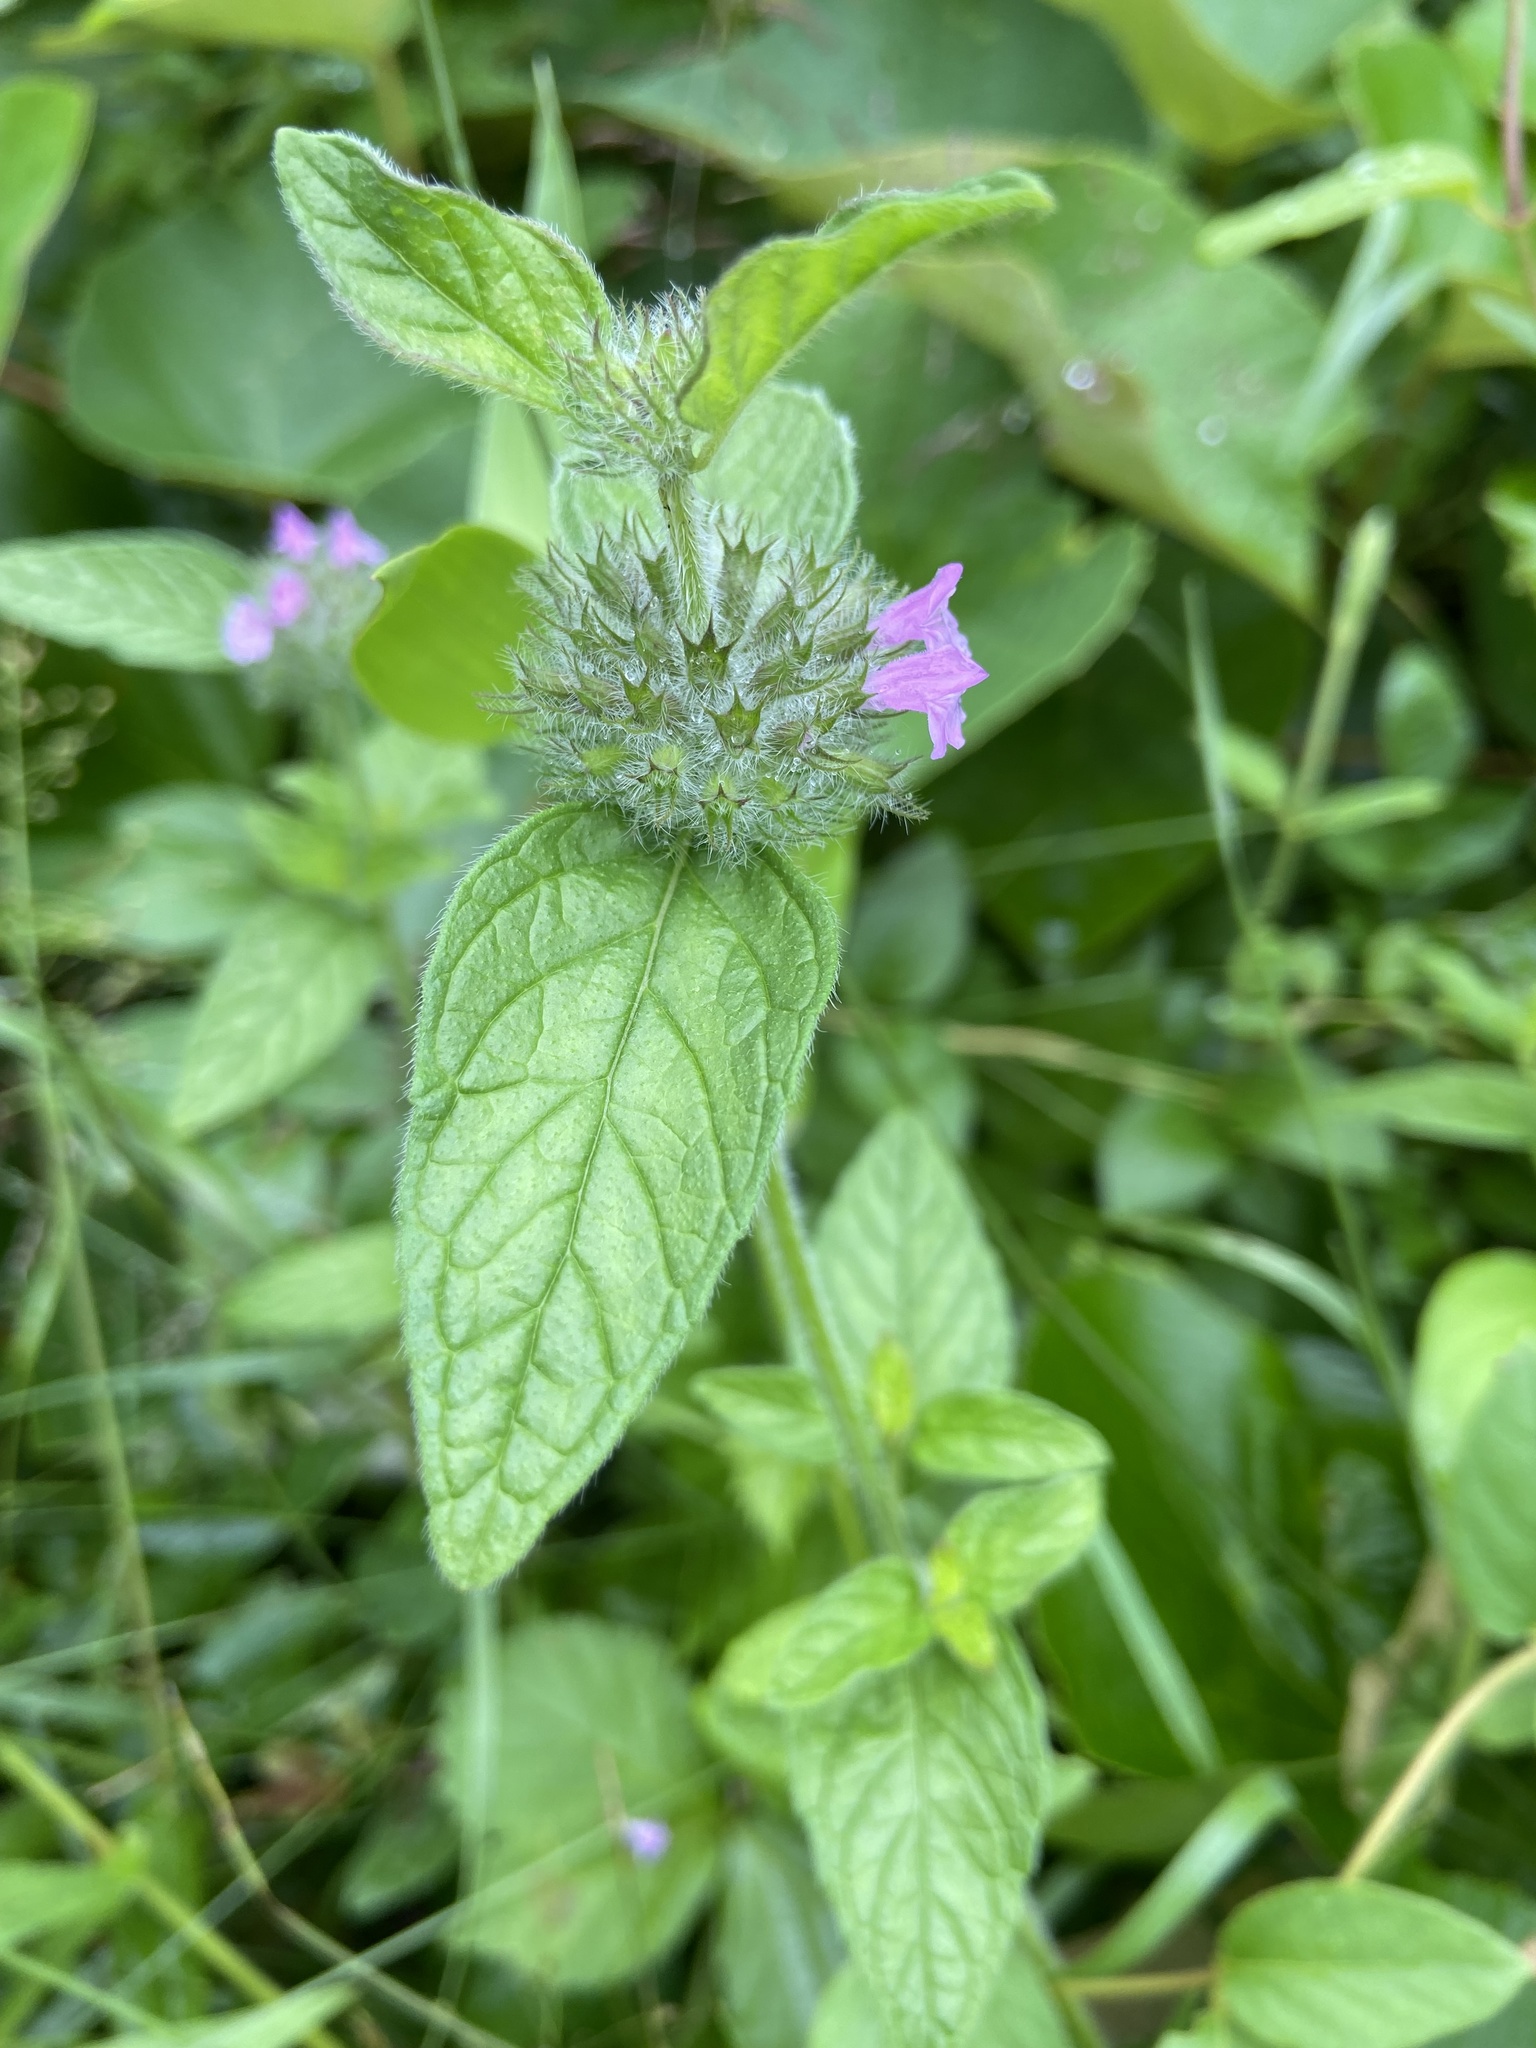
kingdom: Plantae
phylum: Tracheophyta
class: Magnoliopsida
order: Lamiales
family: Lamiaceae
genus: Clinopodium
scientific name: Clinopodium vulgare
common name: Wild basil
